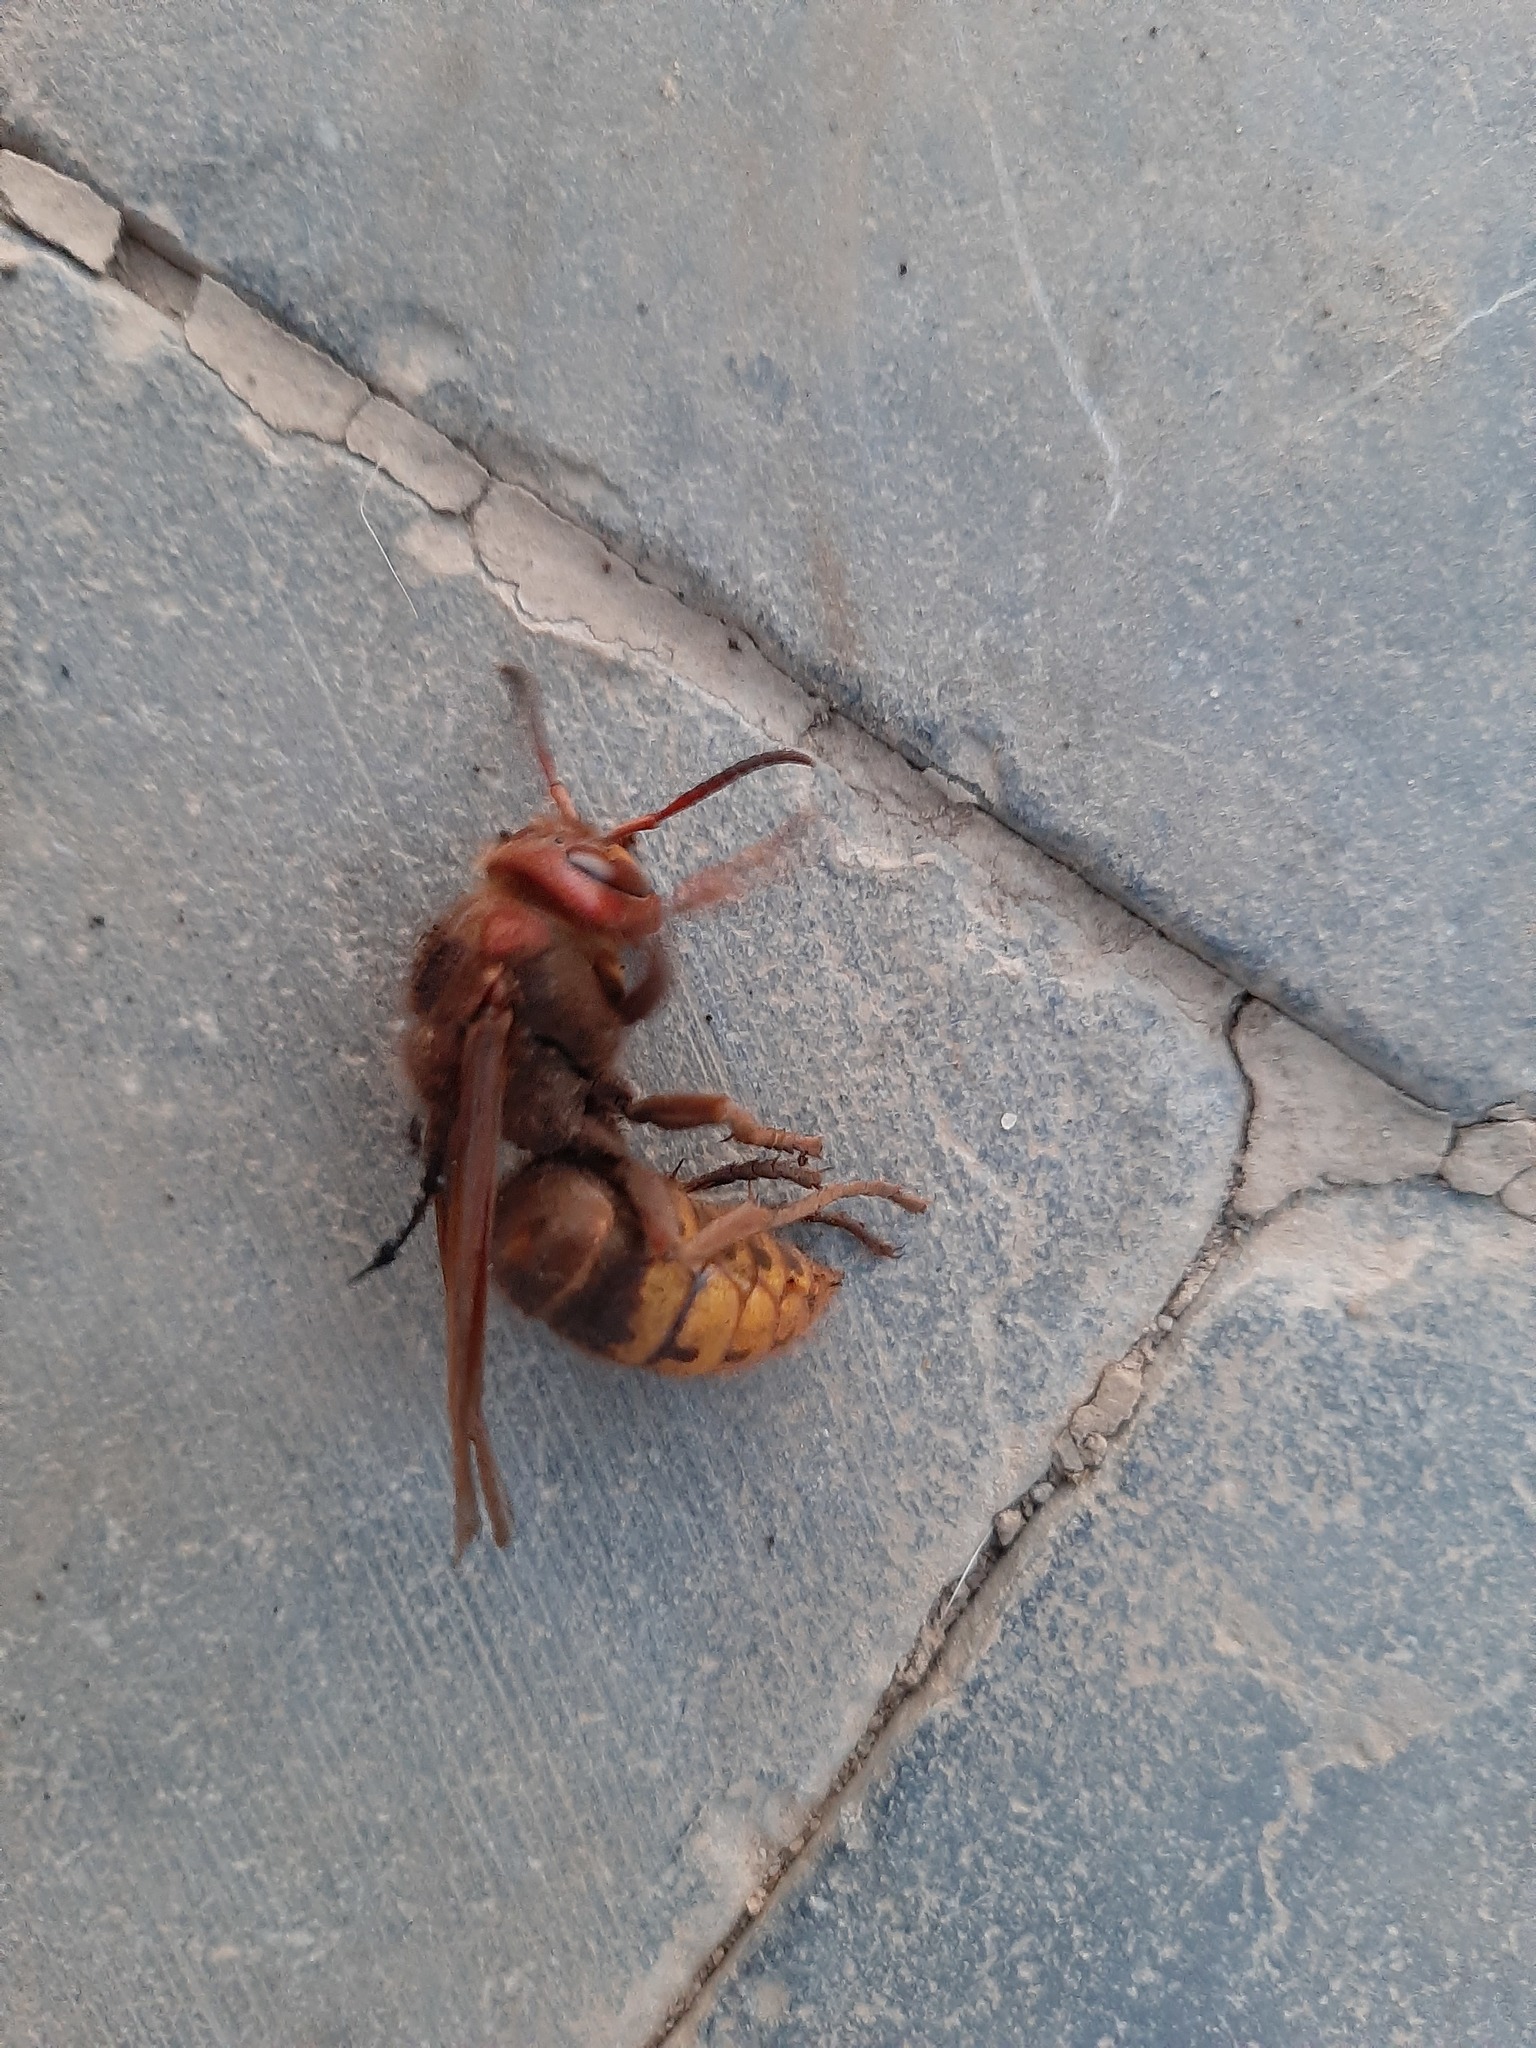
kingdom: Animalia
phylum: Arthropoda
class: Insecta
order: Hymenoptera
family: Vespidae
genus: Vespa
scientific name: Vespa crabro
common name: Hornet
